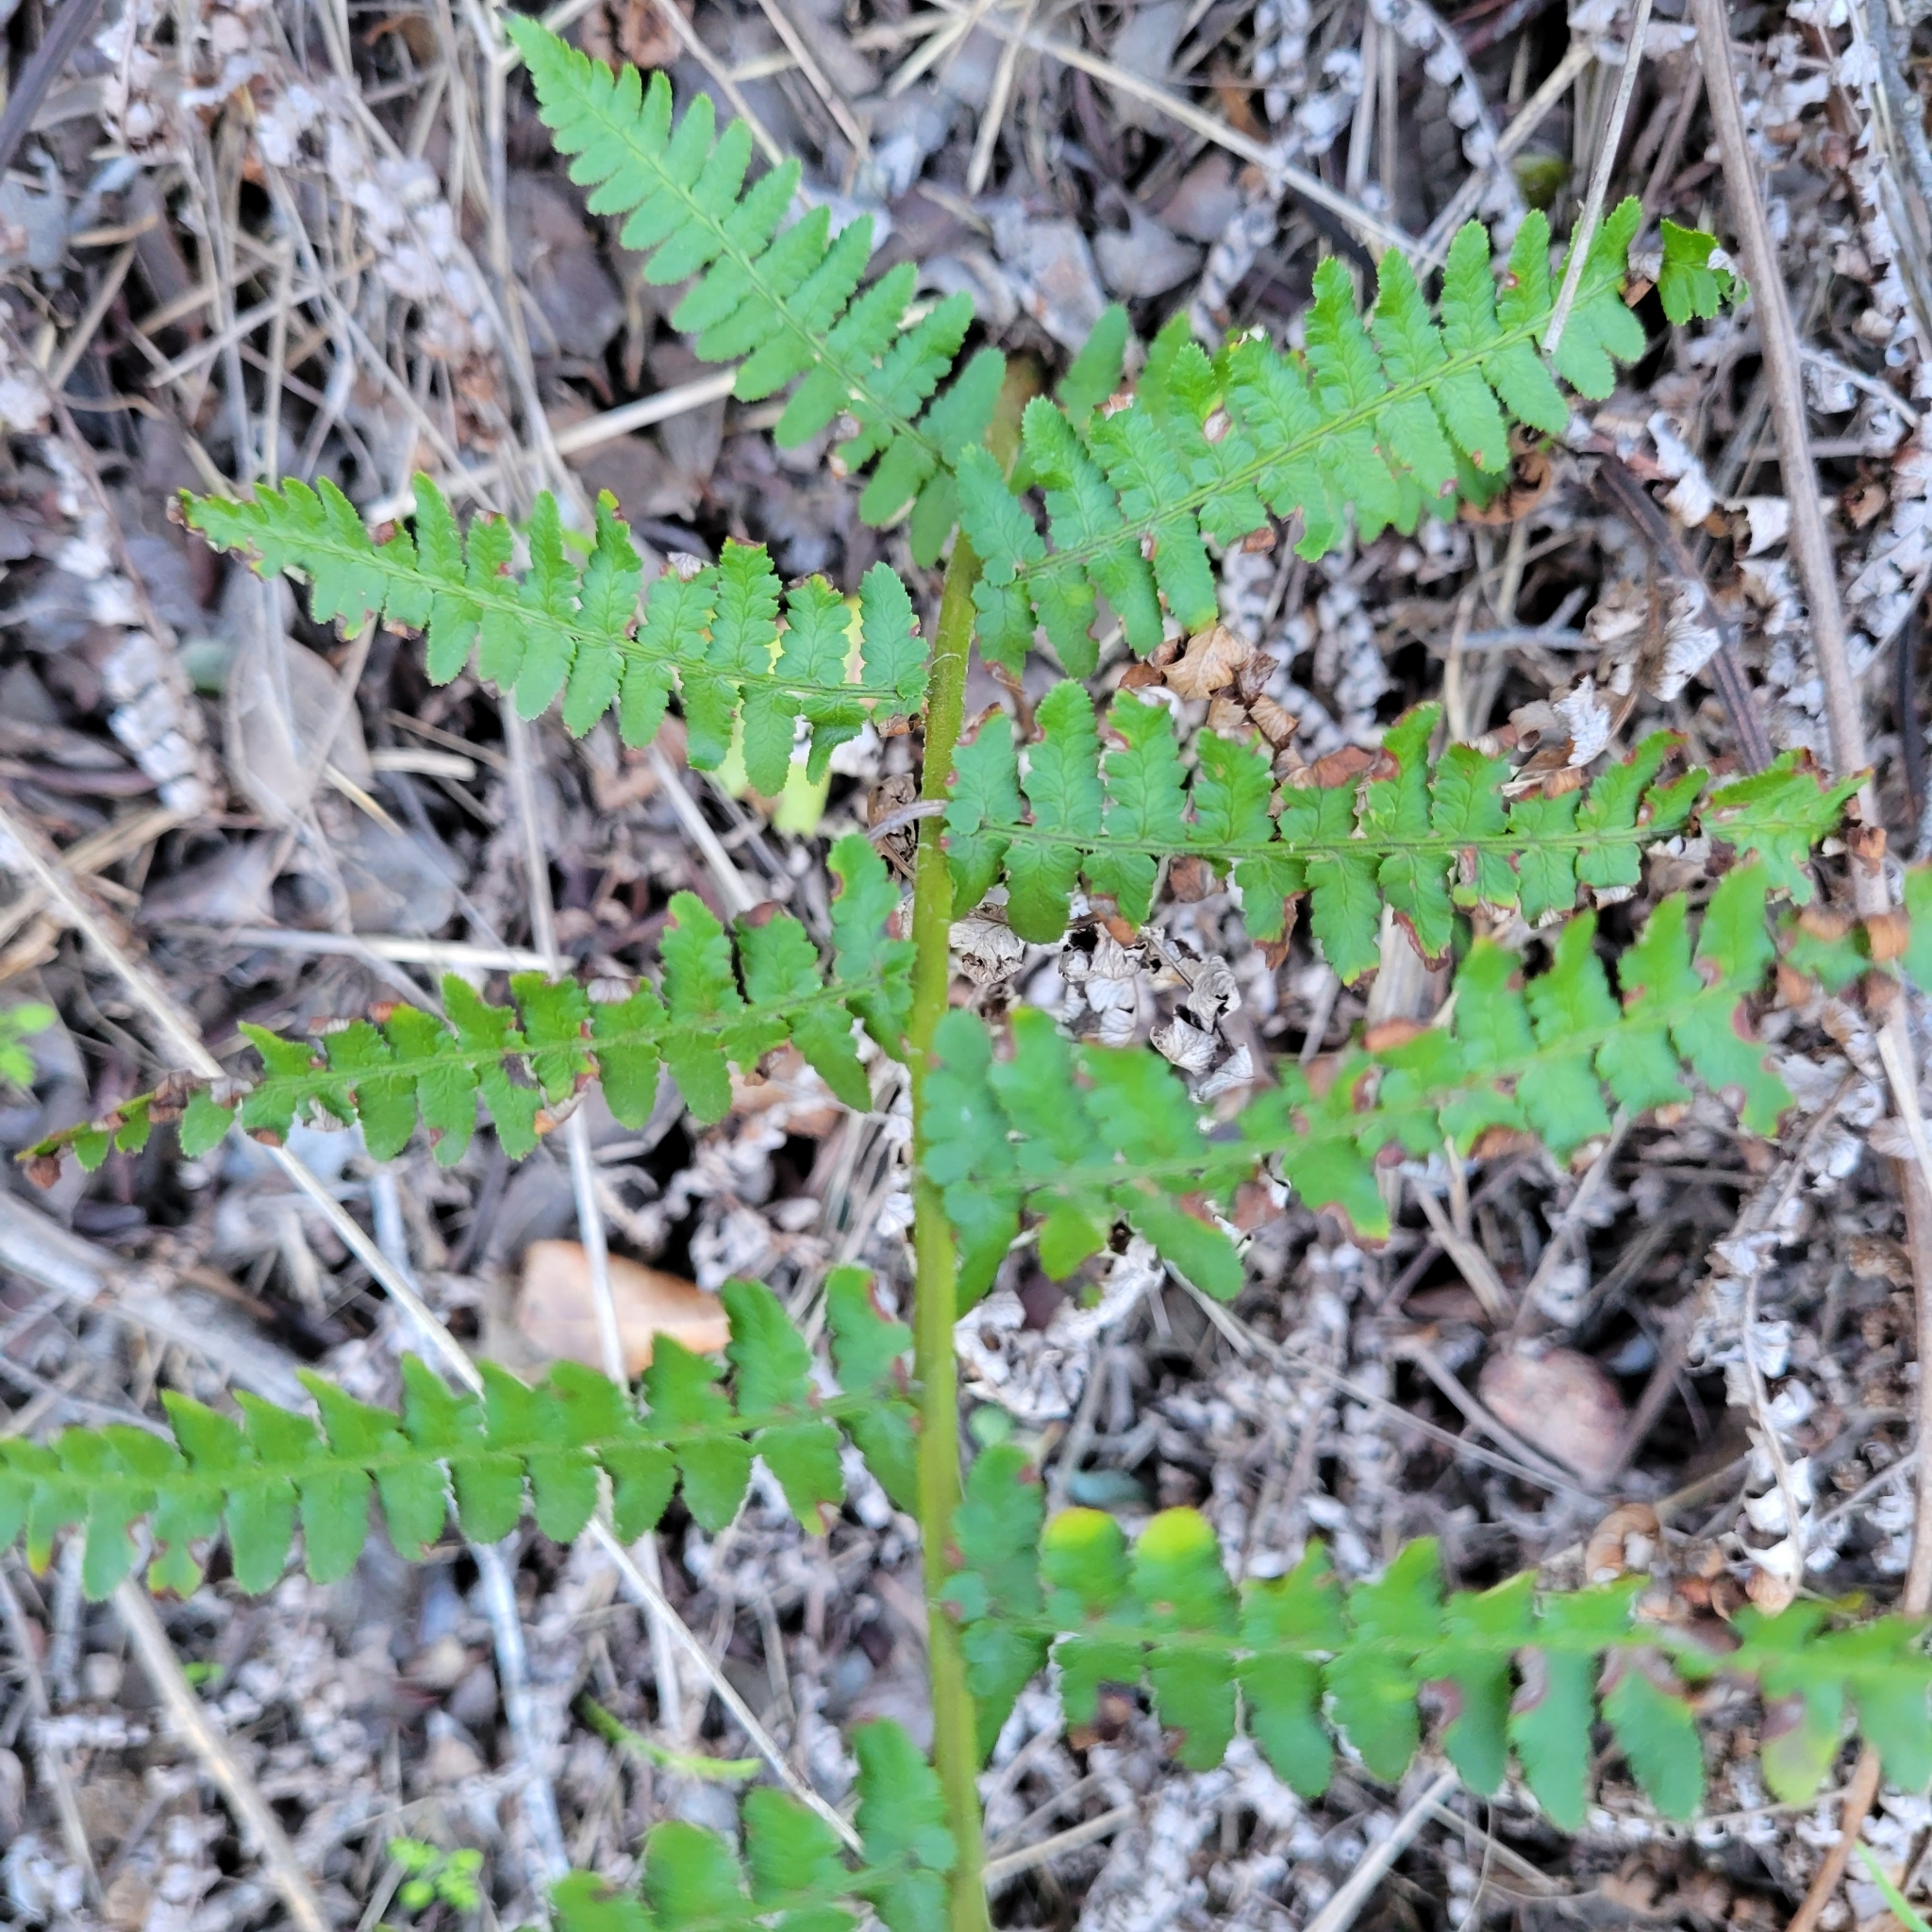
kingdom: Plantae
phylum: Tracheophyta
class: Polypodiopsida
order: Polypodiales
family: Dryopteridaceae
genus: Dryopteris
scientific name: Dryopteris arguta
